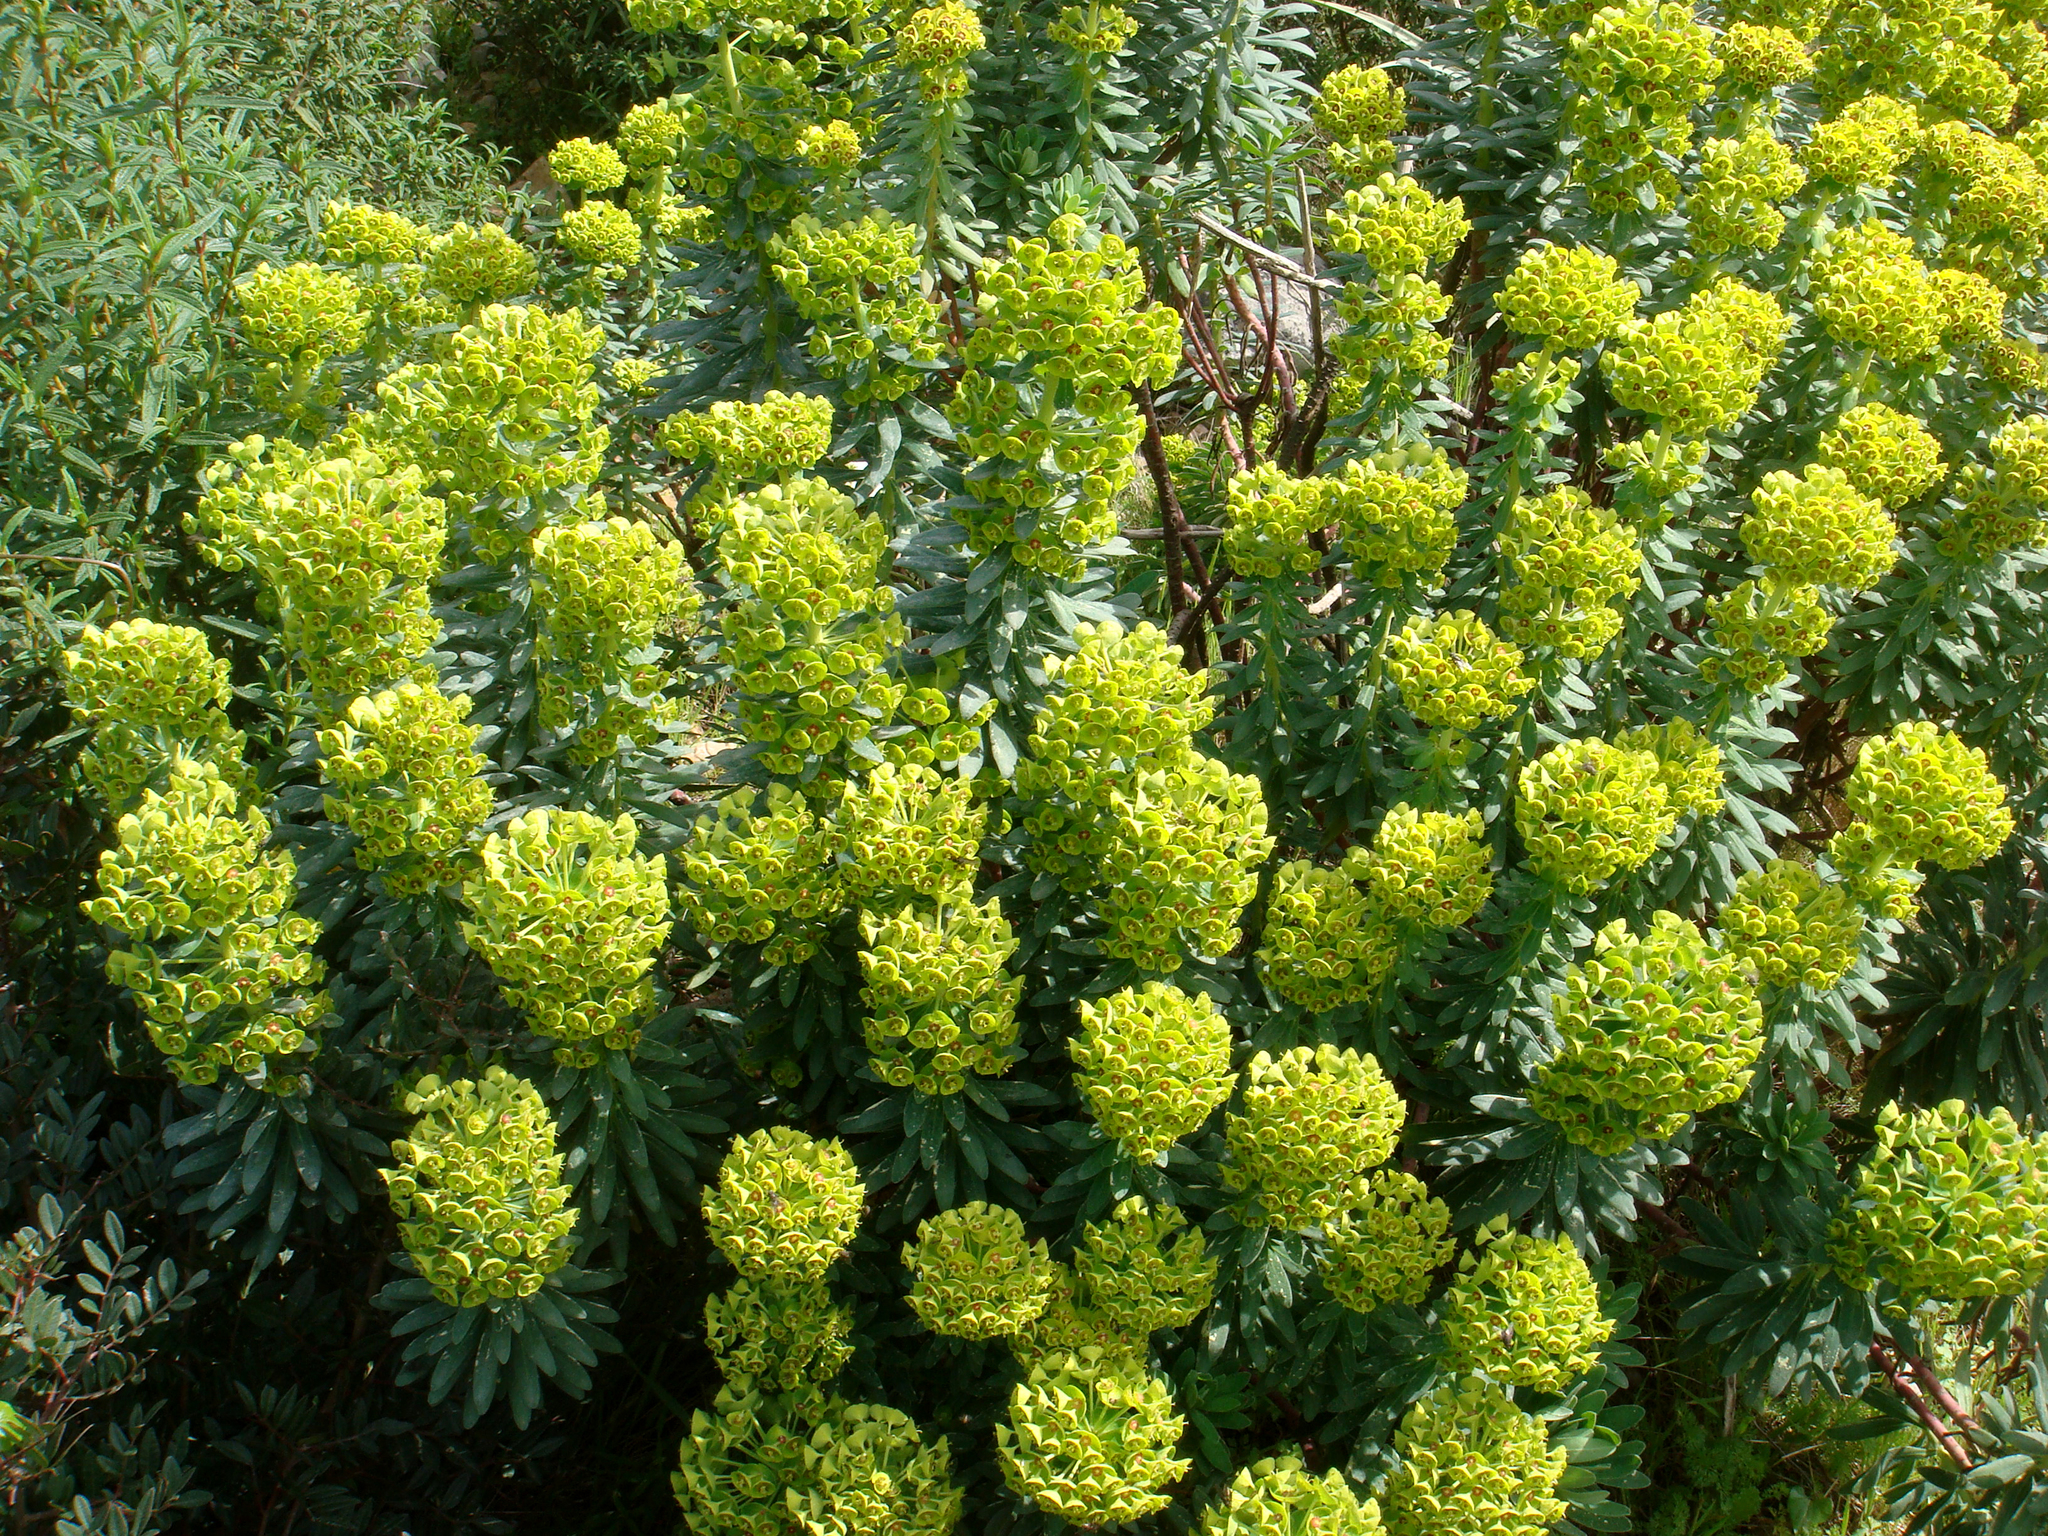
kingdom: Plantae
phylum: Tracheophyta
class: Magnoliopsida
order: Malpighiales
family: Euphorbiaceae
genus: Euphorbia
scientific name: Euphorbia characias
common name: Mediterranean spurge
